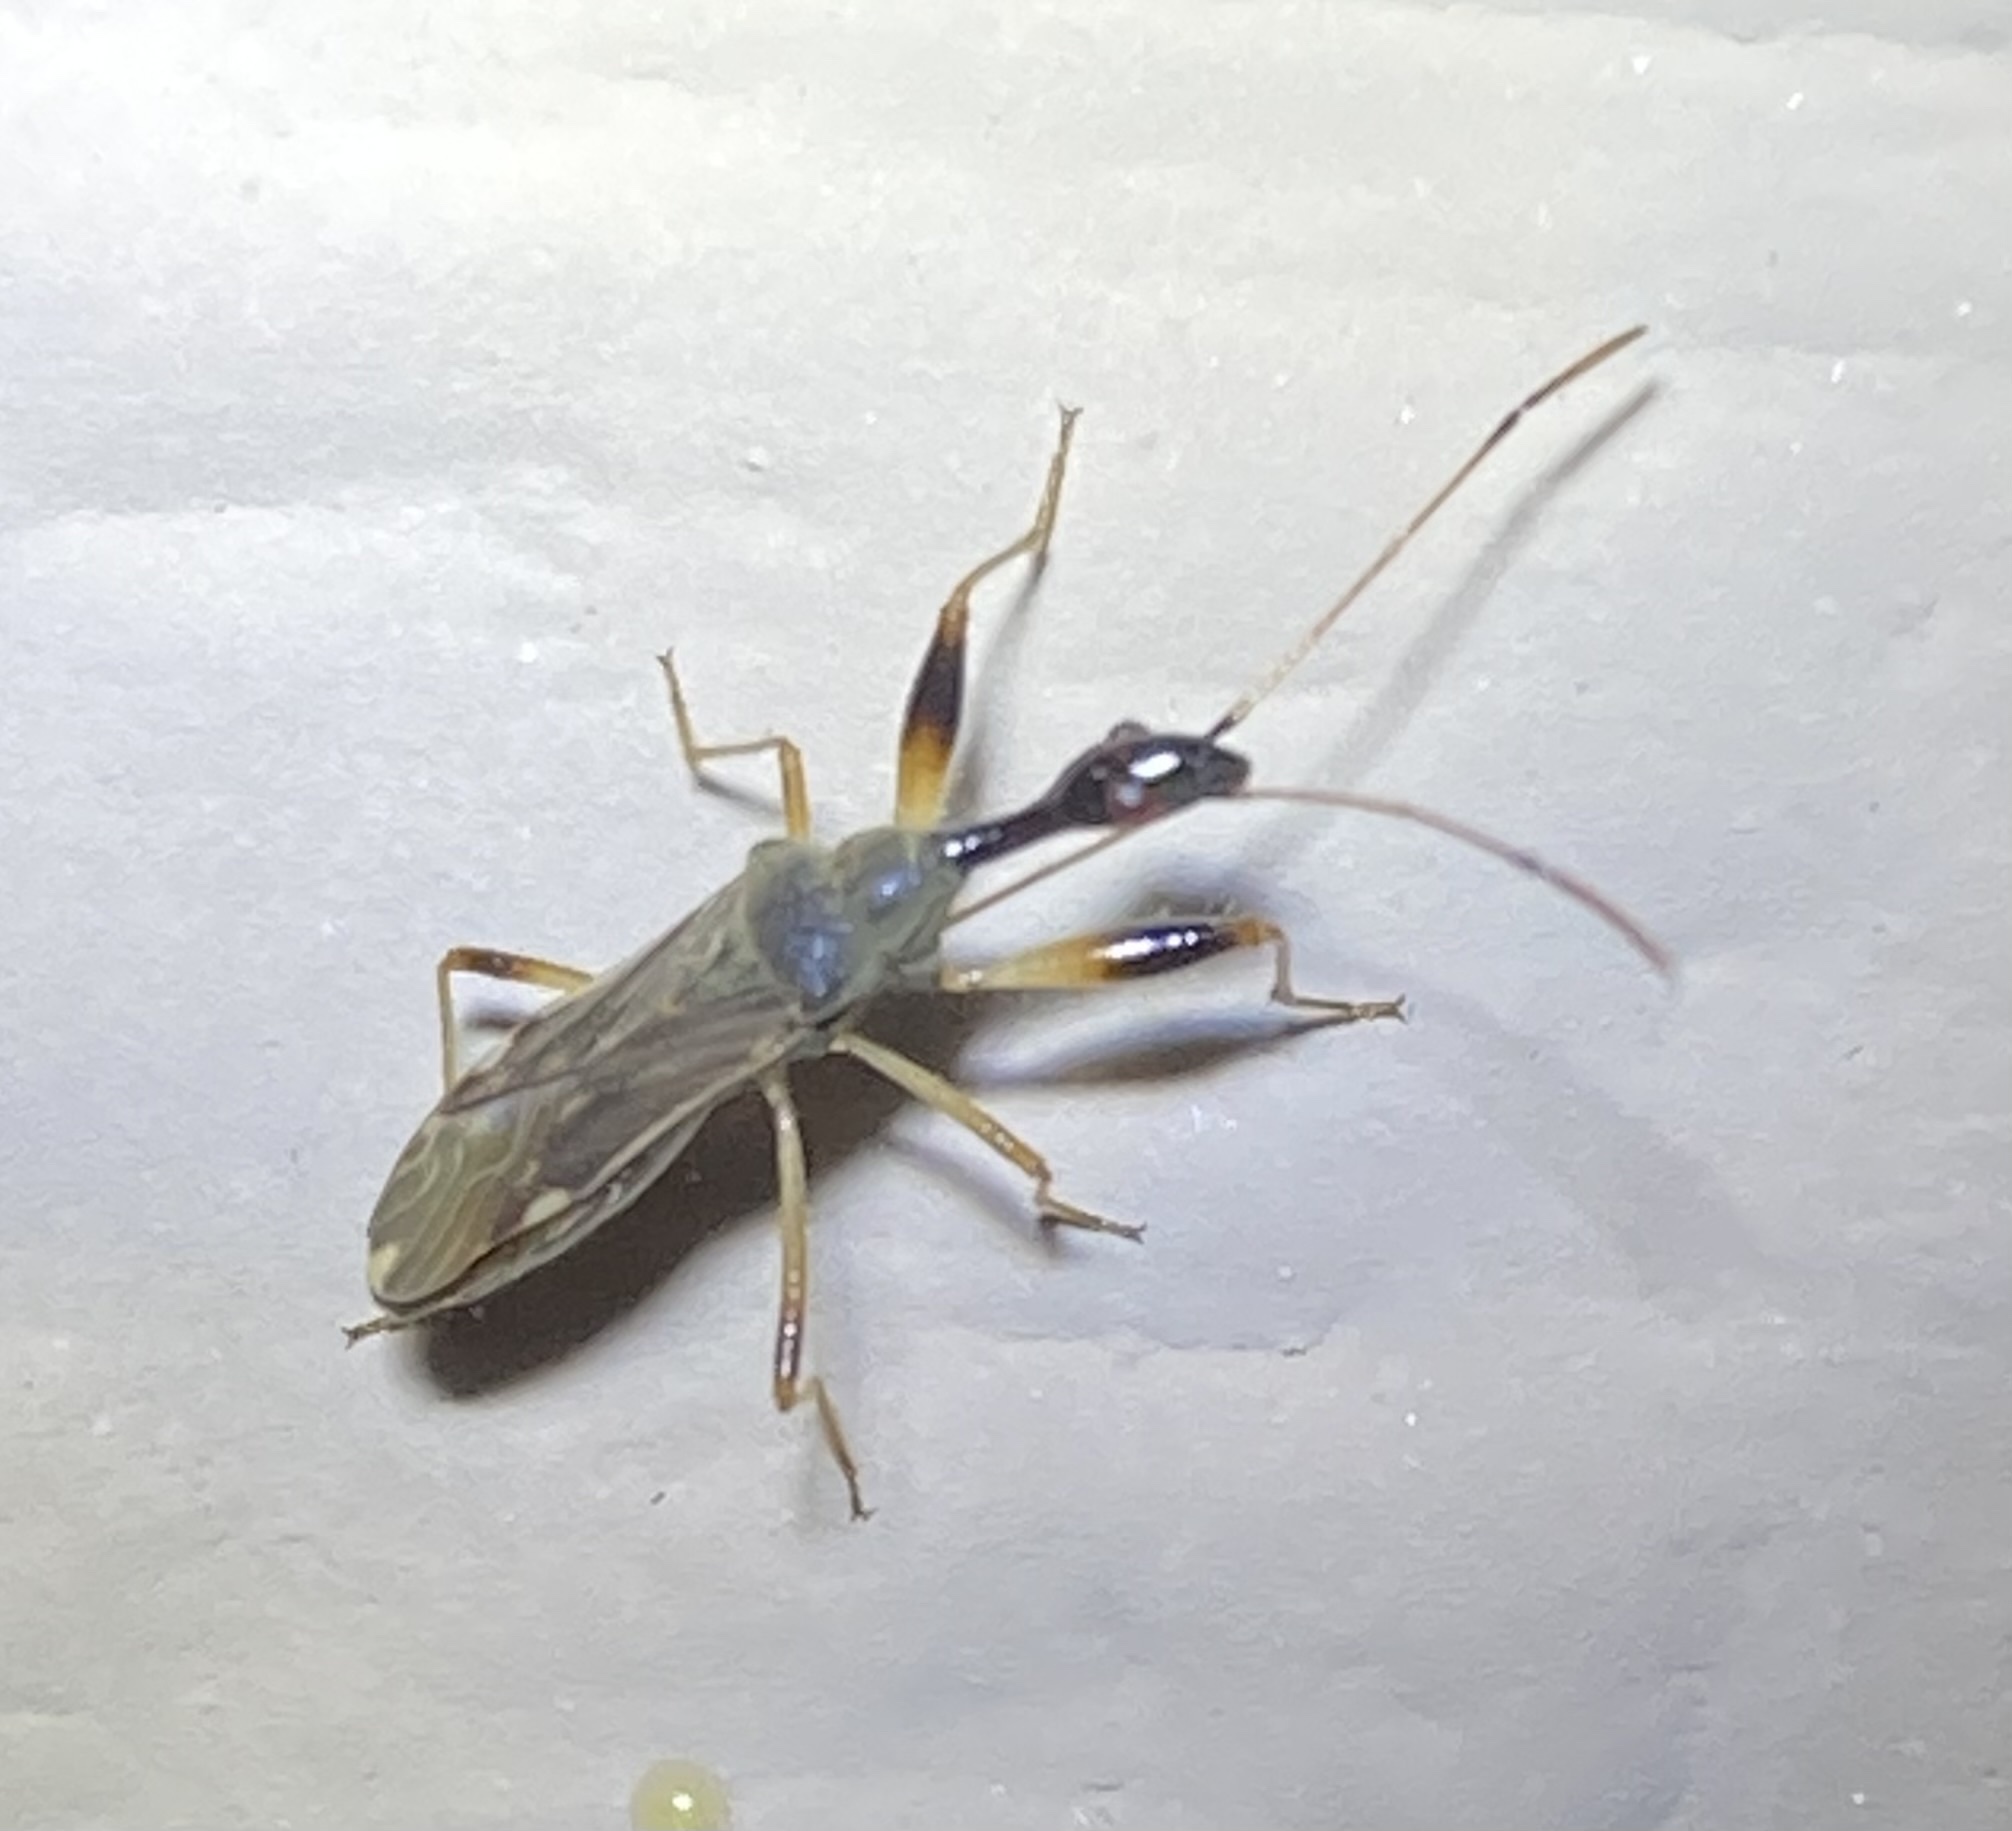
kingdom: Animalia
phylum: Arthropoda
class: Insecta
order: Hemiptera
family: Rhyparochromidae
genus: Myodocha
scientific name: Myodocha serripes
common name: Long-necked seed bug
